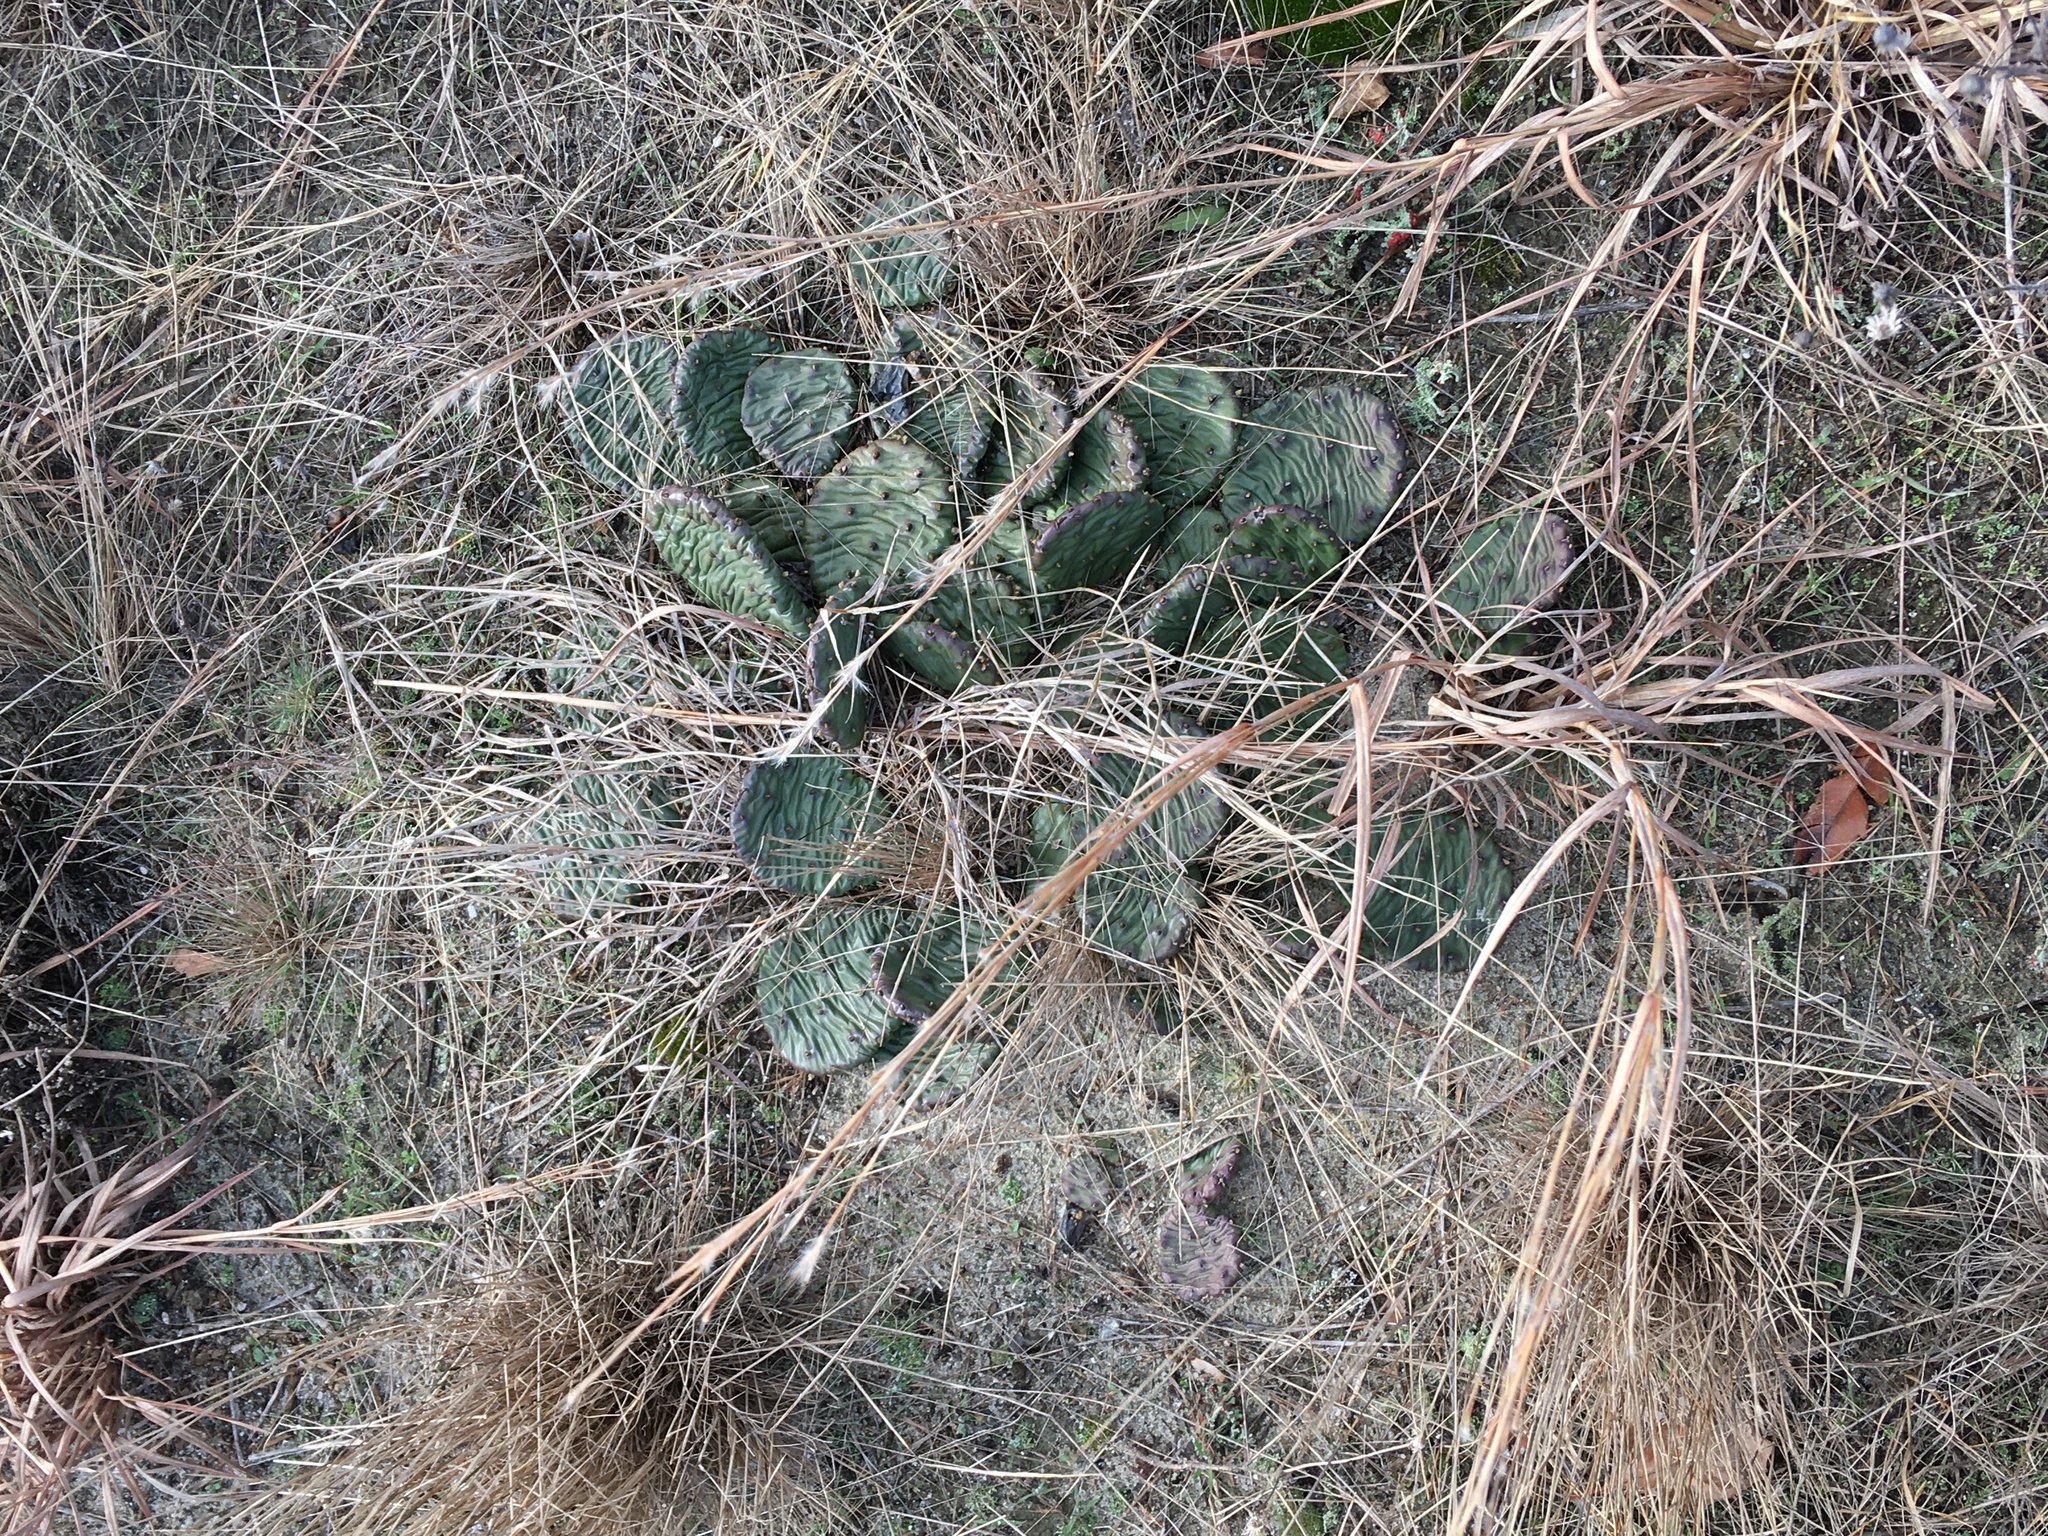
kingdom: Plantae
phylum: Tracheophyta
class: Magnoliopsida
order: Caryophyllales
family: Cactaceae
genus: Opuntia
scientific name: Opuntia humifusa
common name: Eastern prickly-pear
